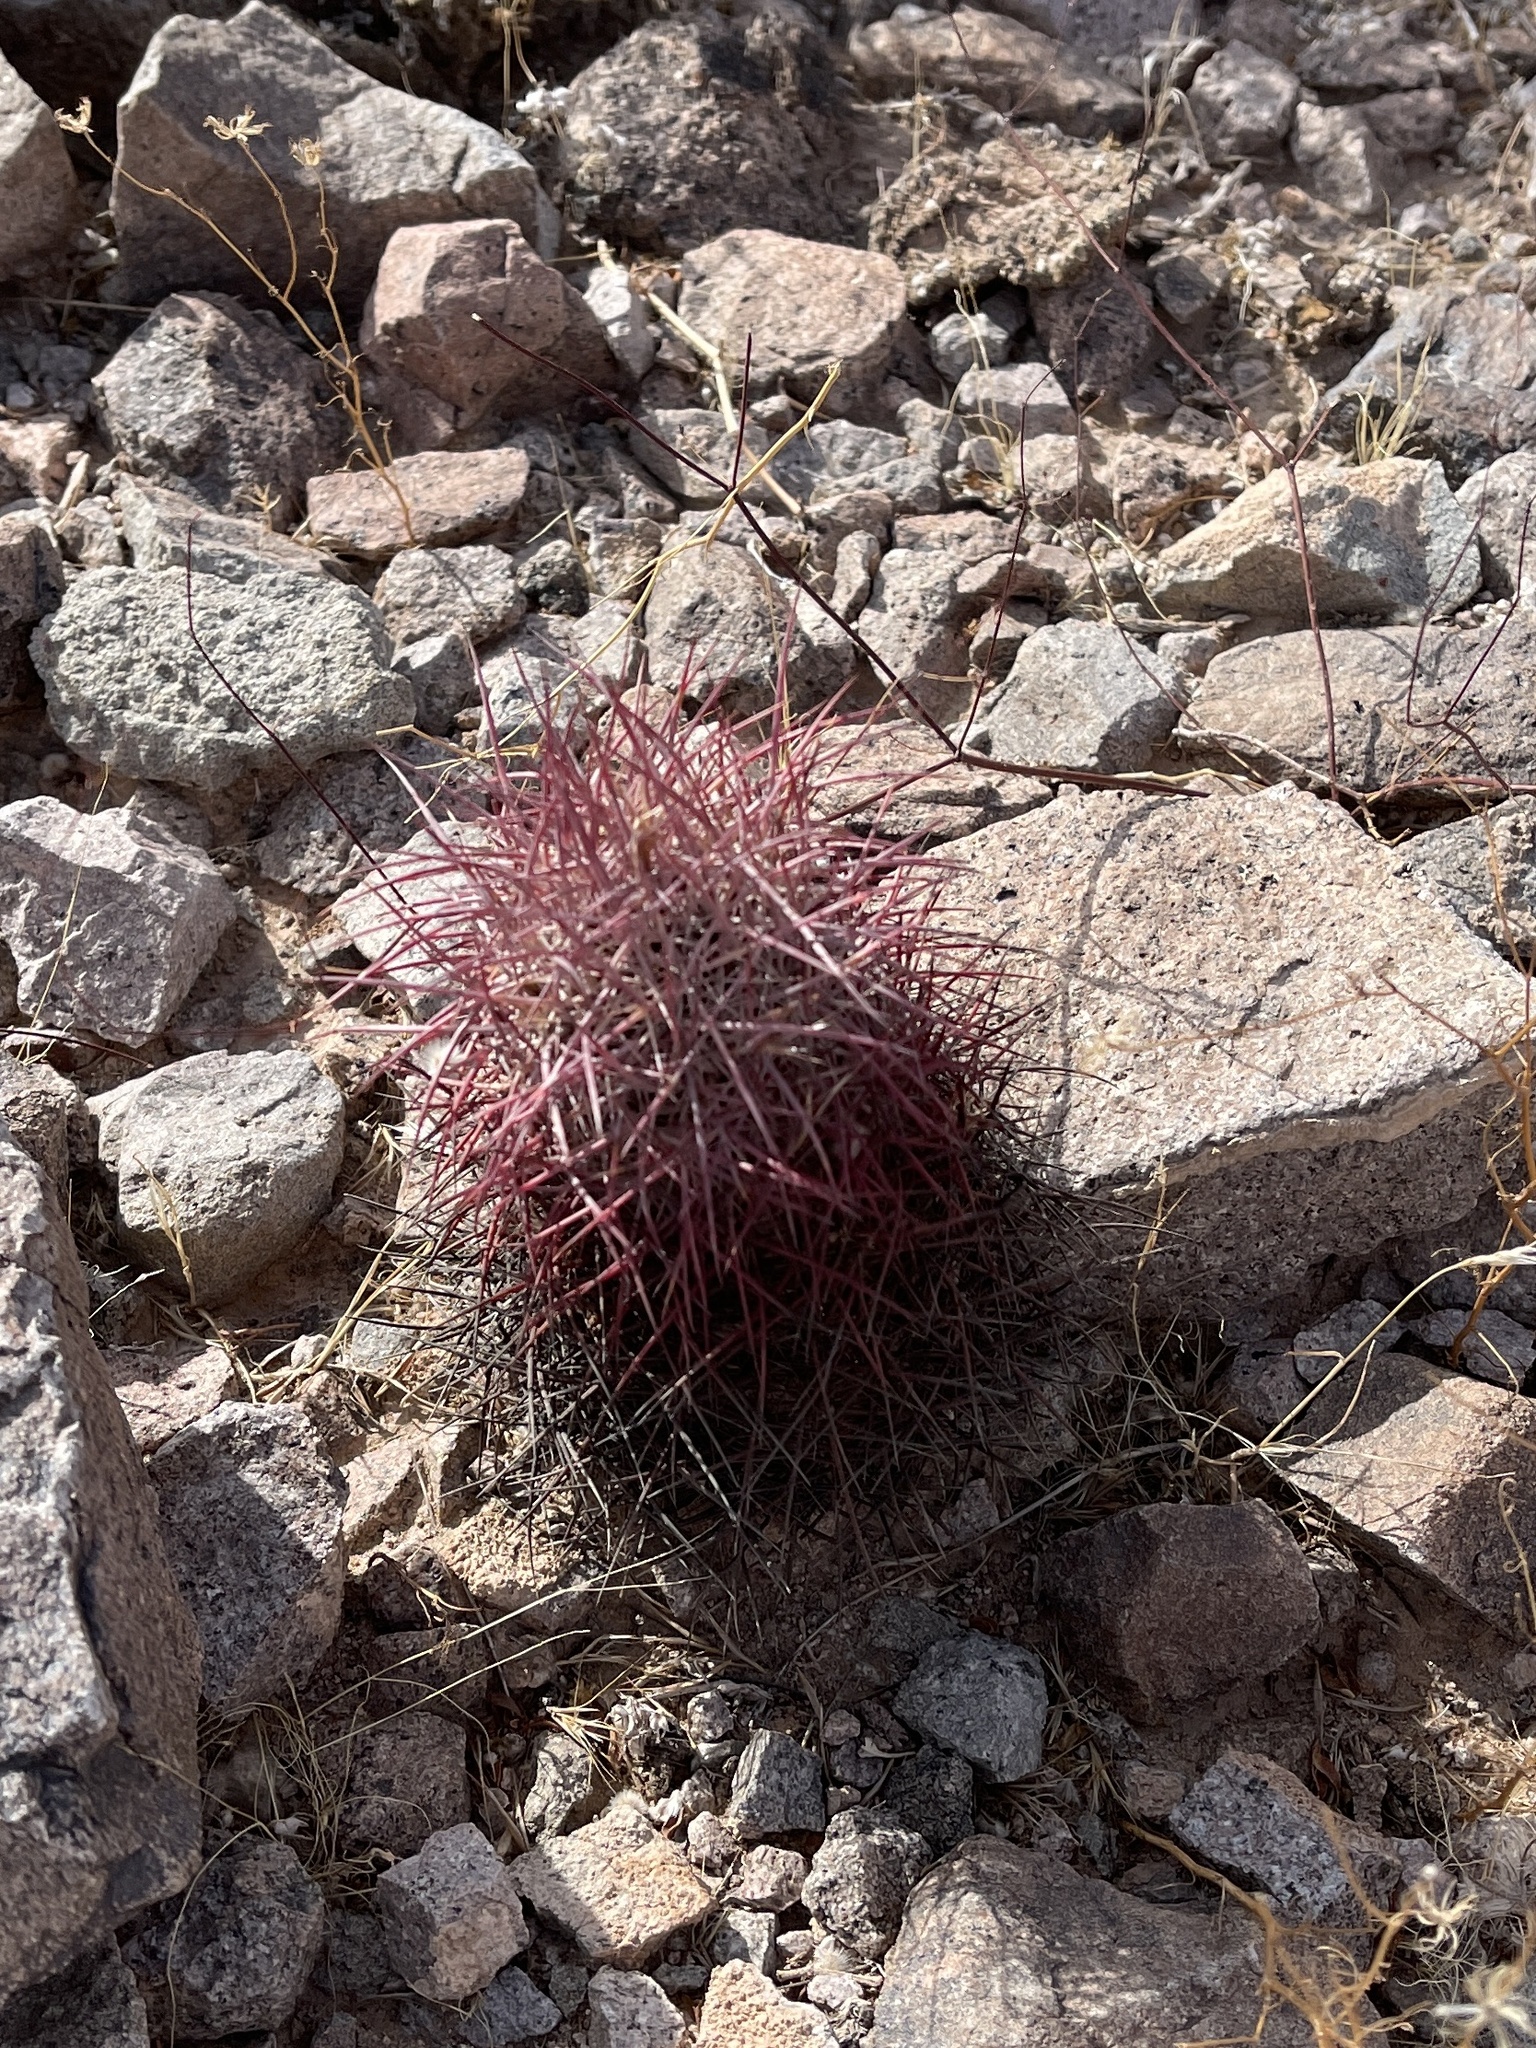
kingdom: Plantae
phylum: Tracheophyta
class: Magnoliopsida
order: Caryophyllales
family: Cactaceae
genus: Sclerocactus
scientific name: Sclerocactus johnsonii
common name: Eight-spine fishhook cactus
